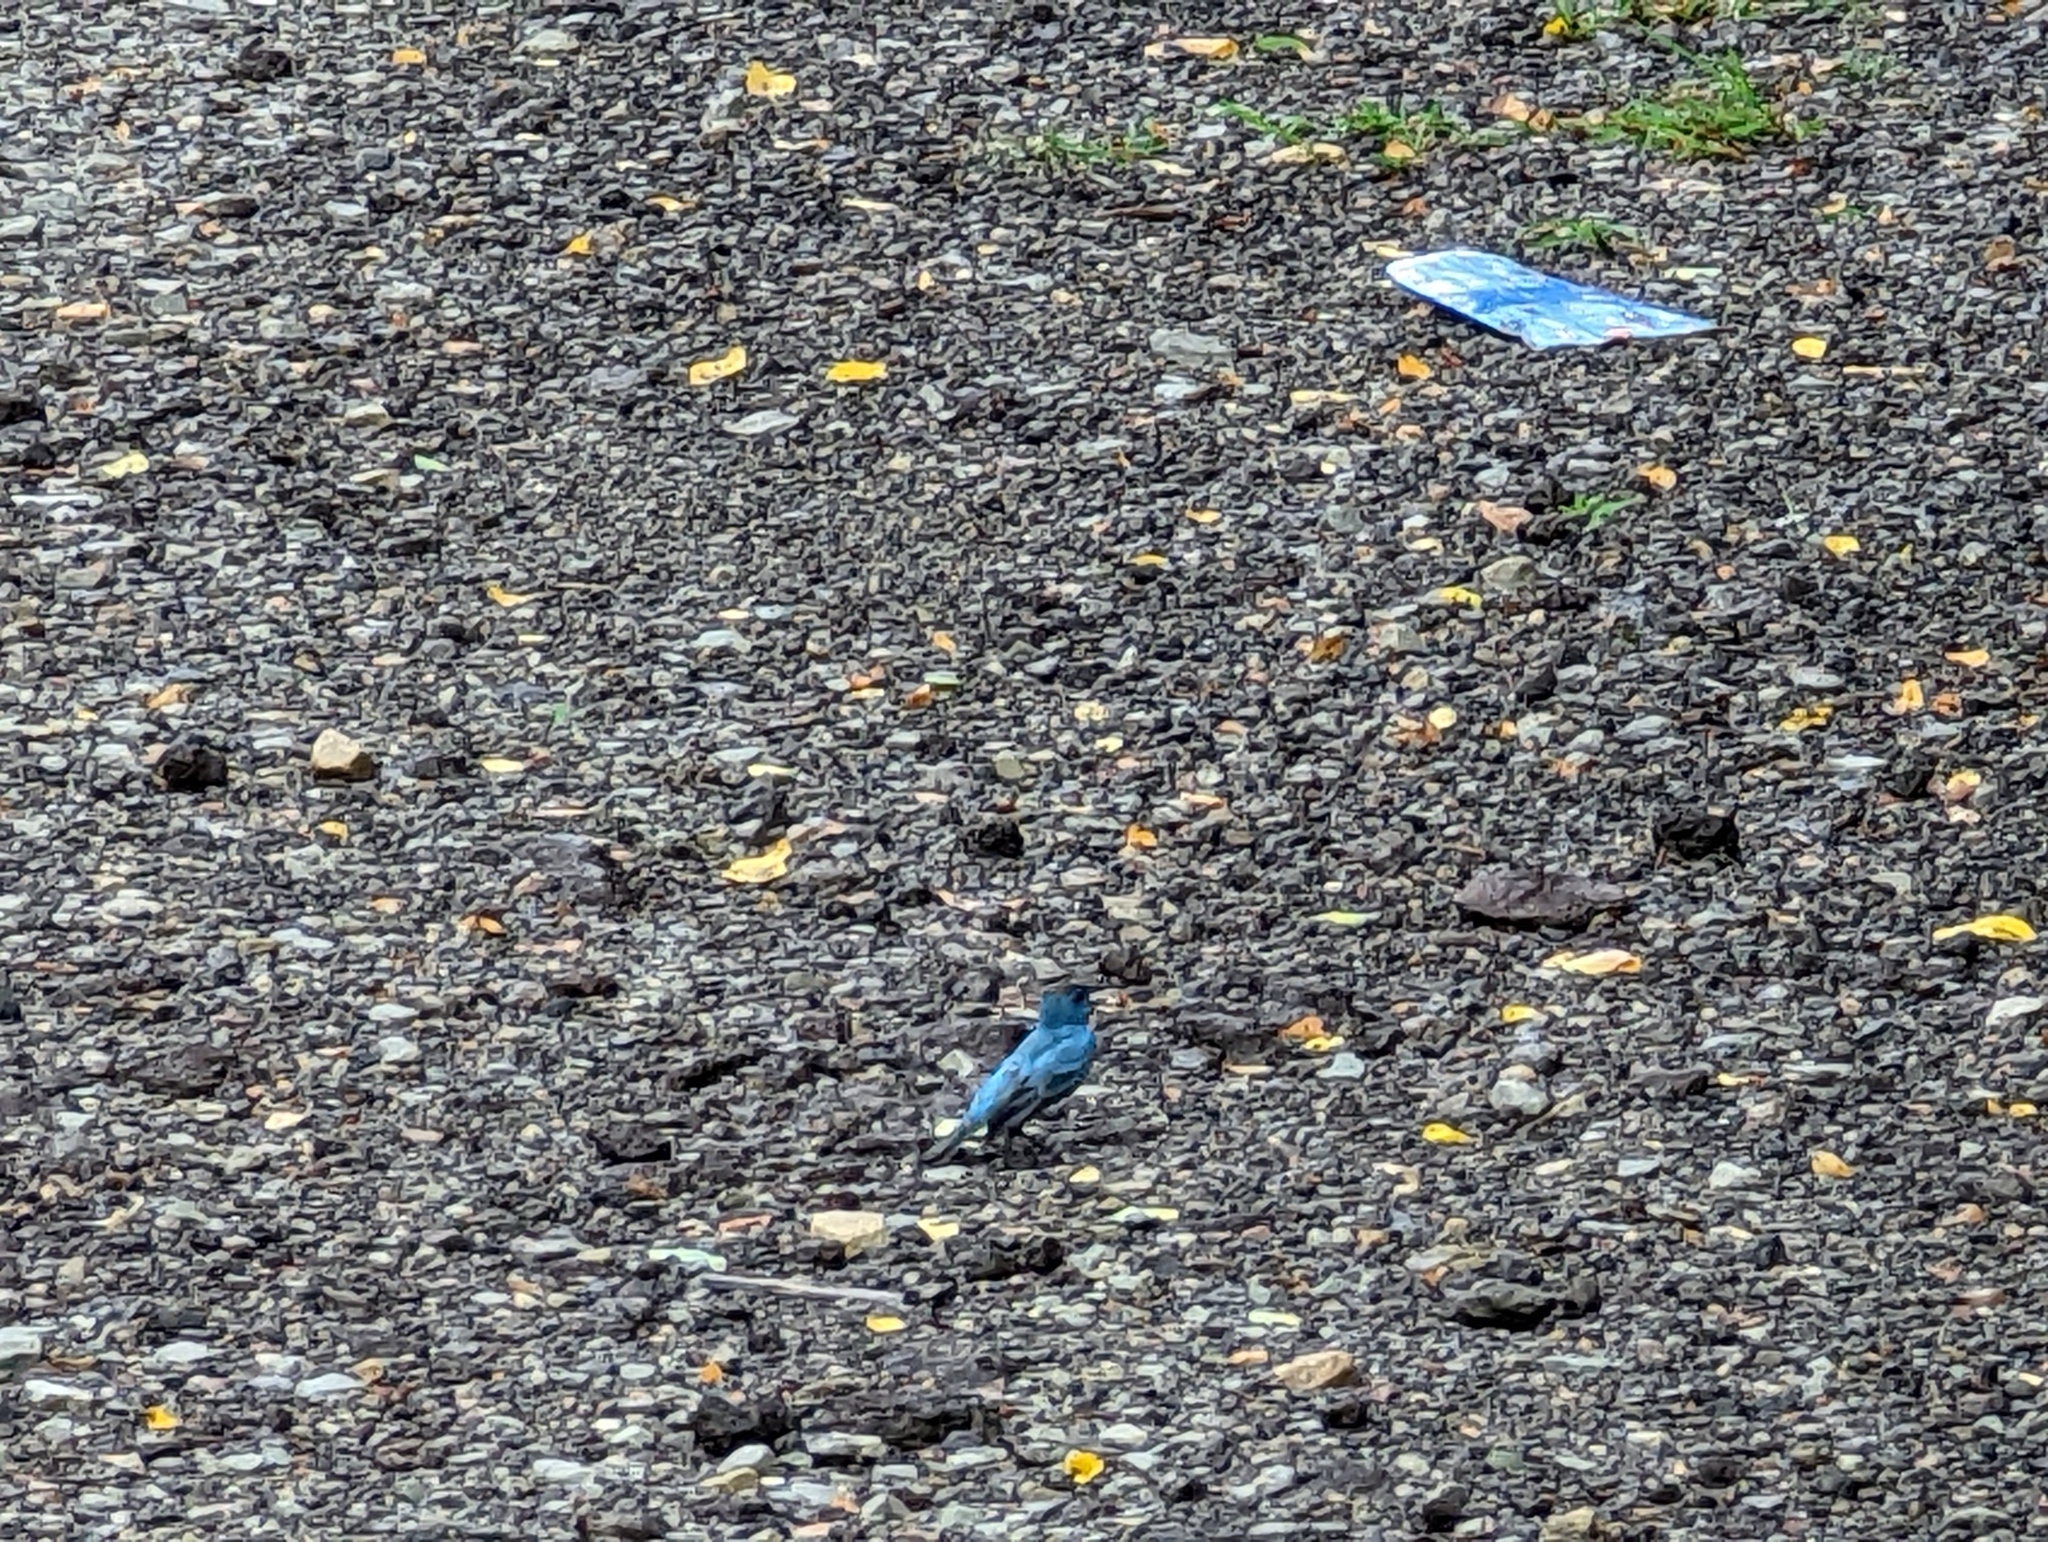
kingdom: Animalia
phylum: Chordata
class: Aves
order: Passeriformes
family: Cardinalidae
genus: Passerina
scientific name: Passerina cyanea
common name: Indigo bunting
